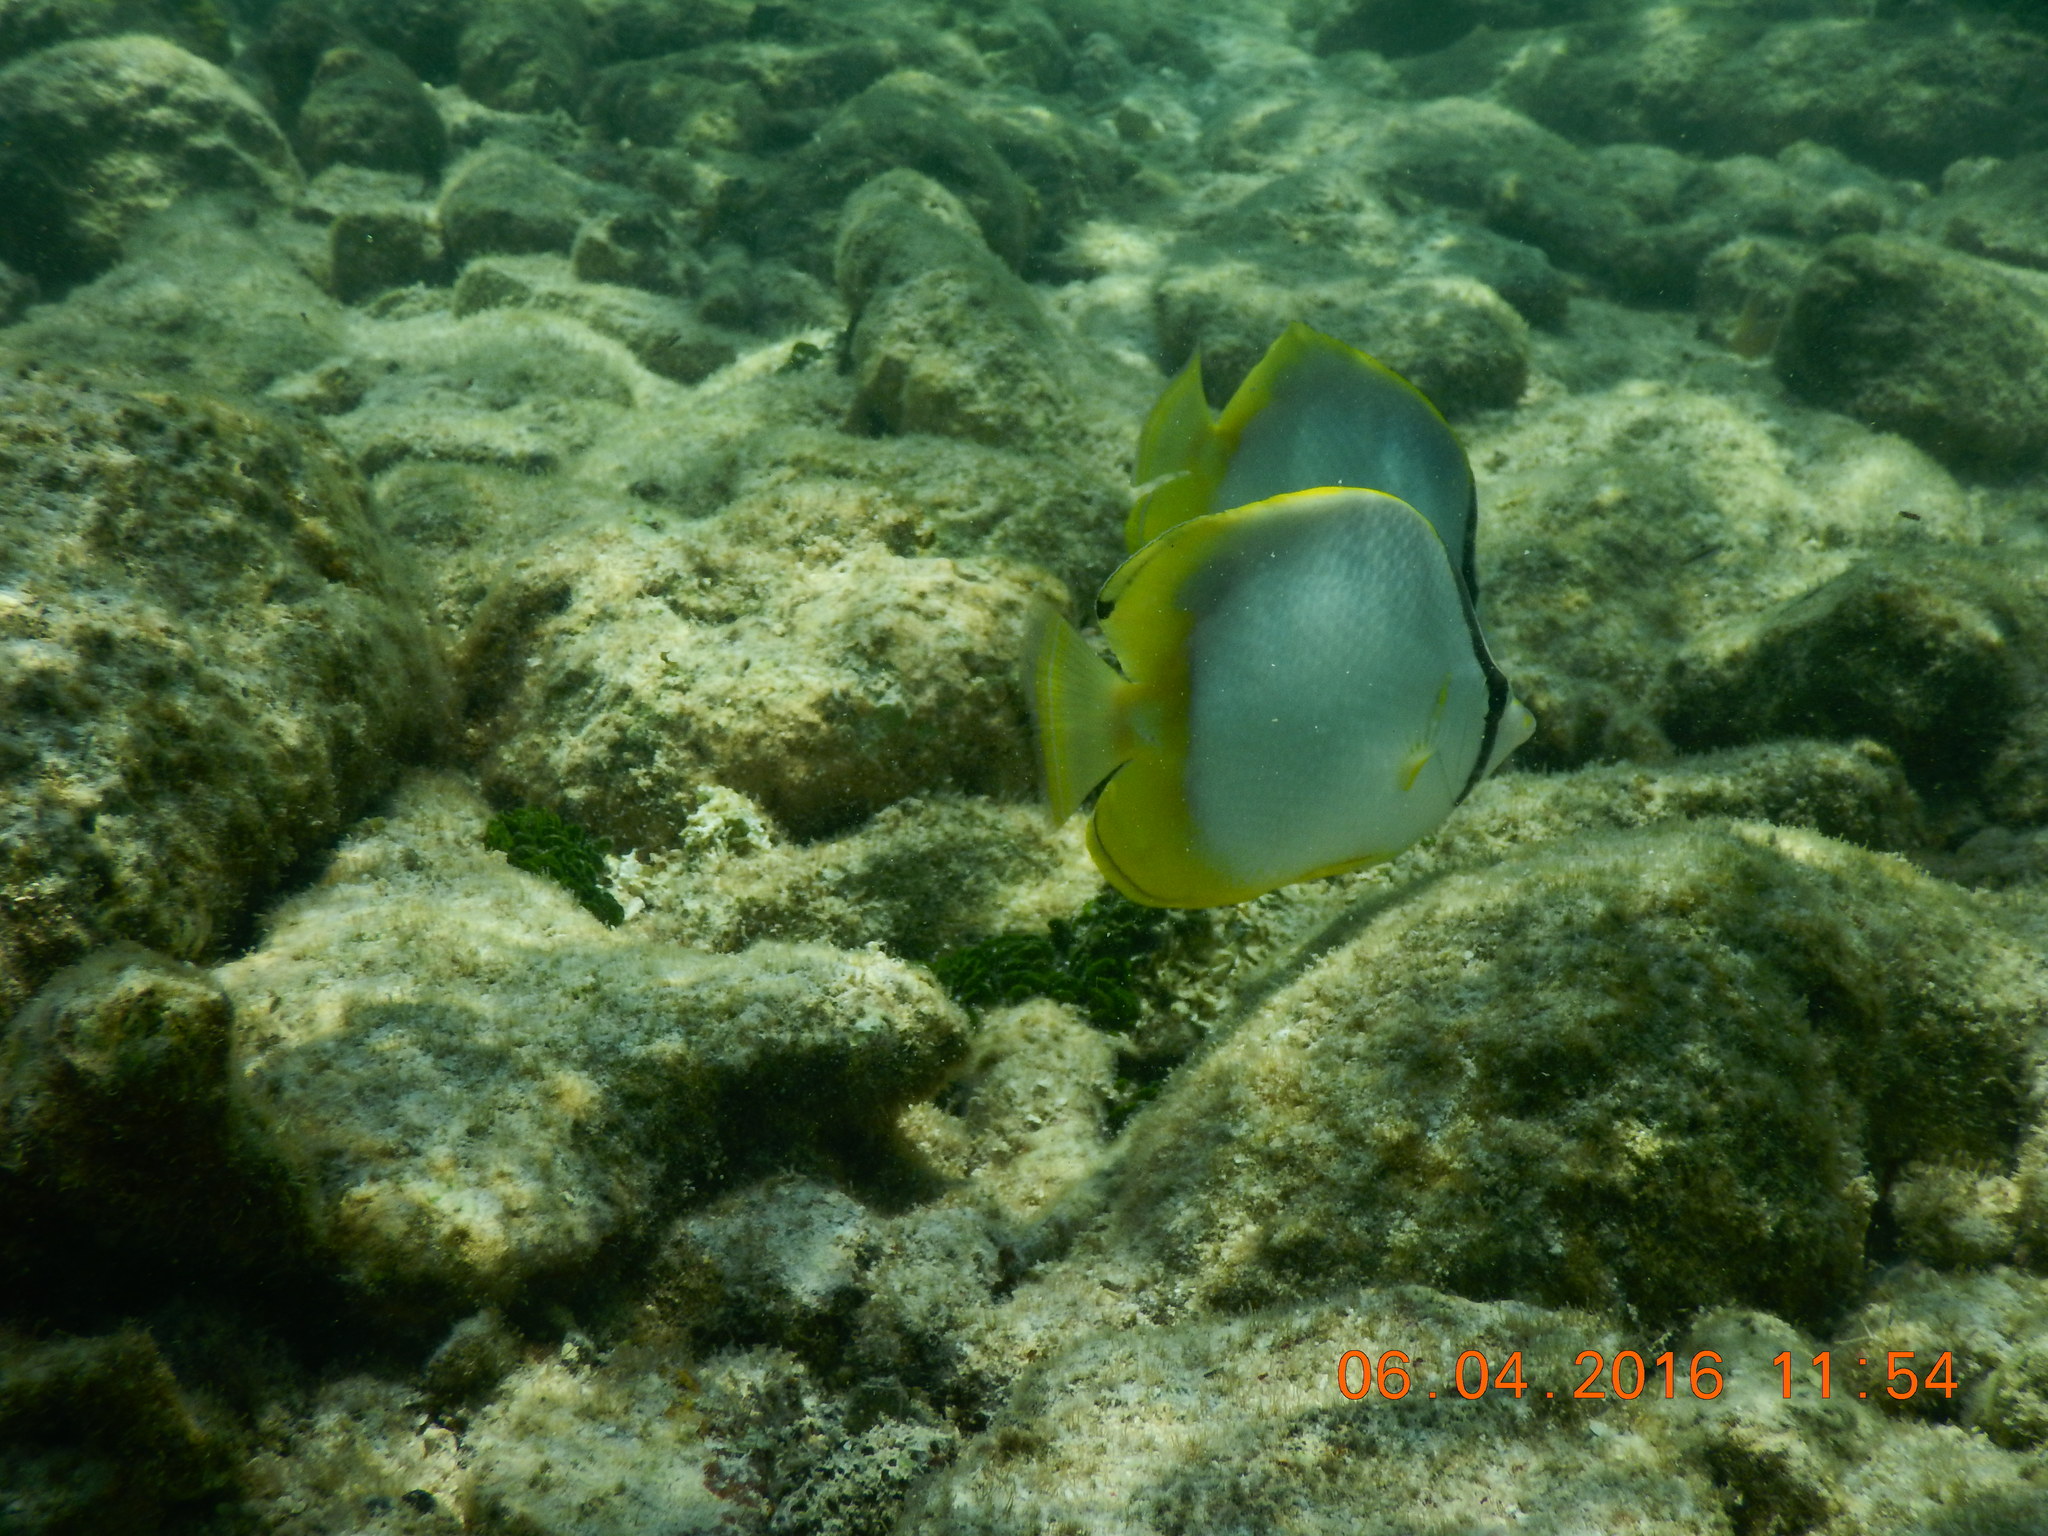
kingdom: Animalia
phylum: Chordata
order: Perciformes
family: Chaetodontidae
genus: Chaetodon
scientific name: Chaetodon ocellatus
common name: Spotfin butterflyfish
